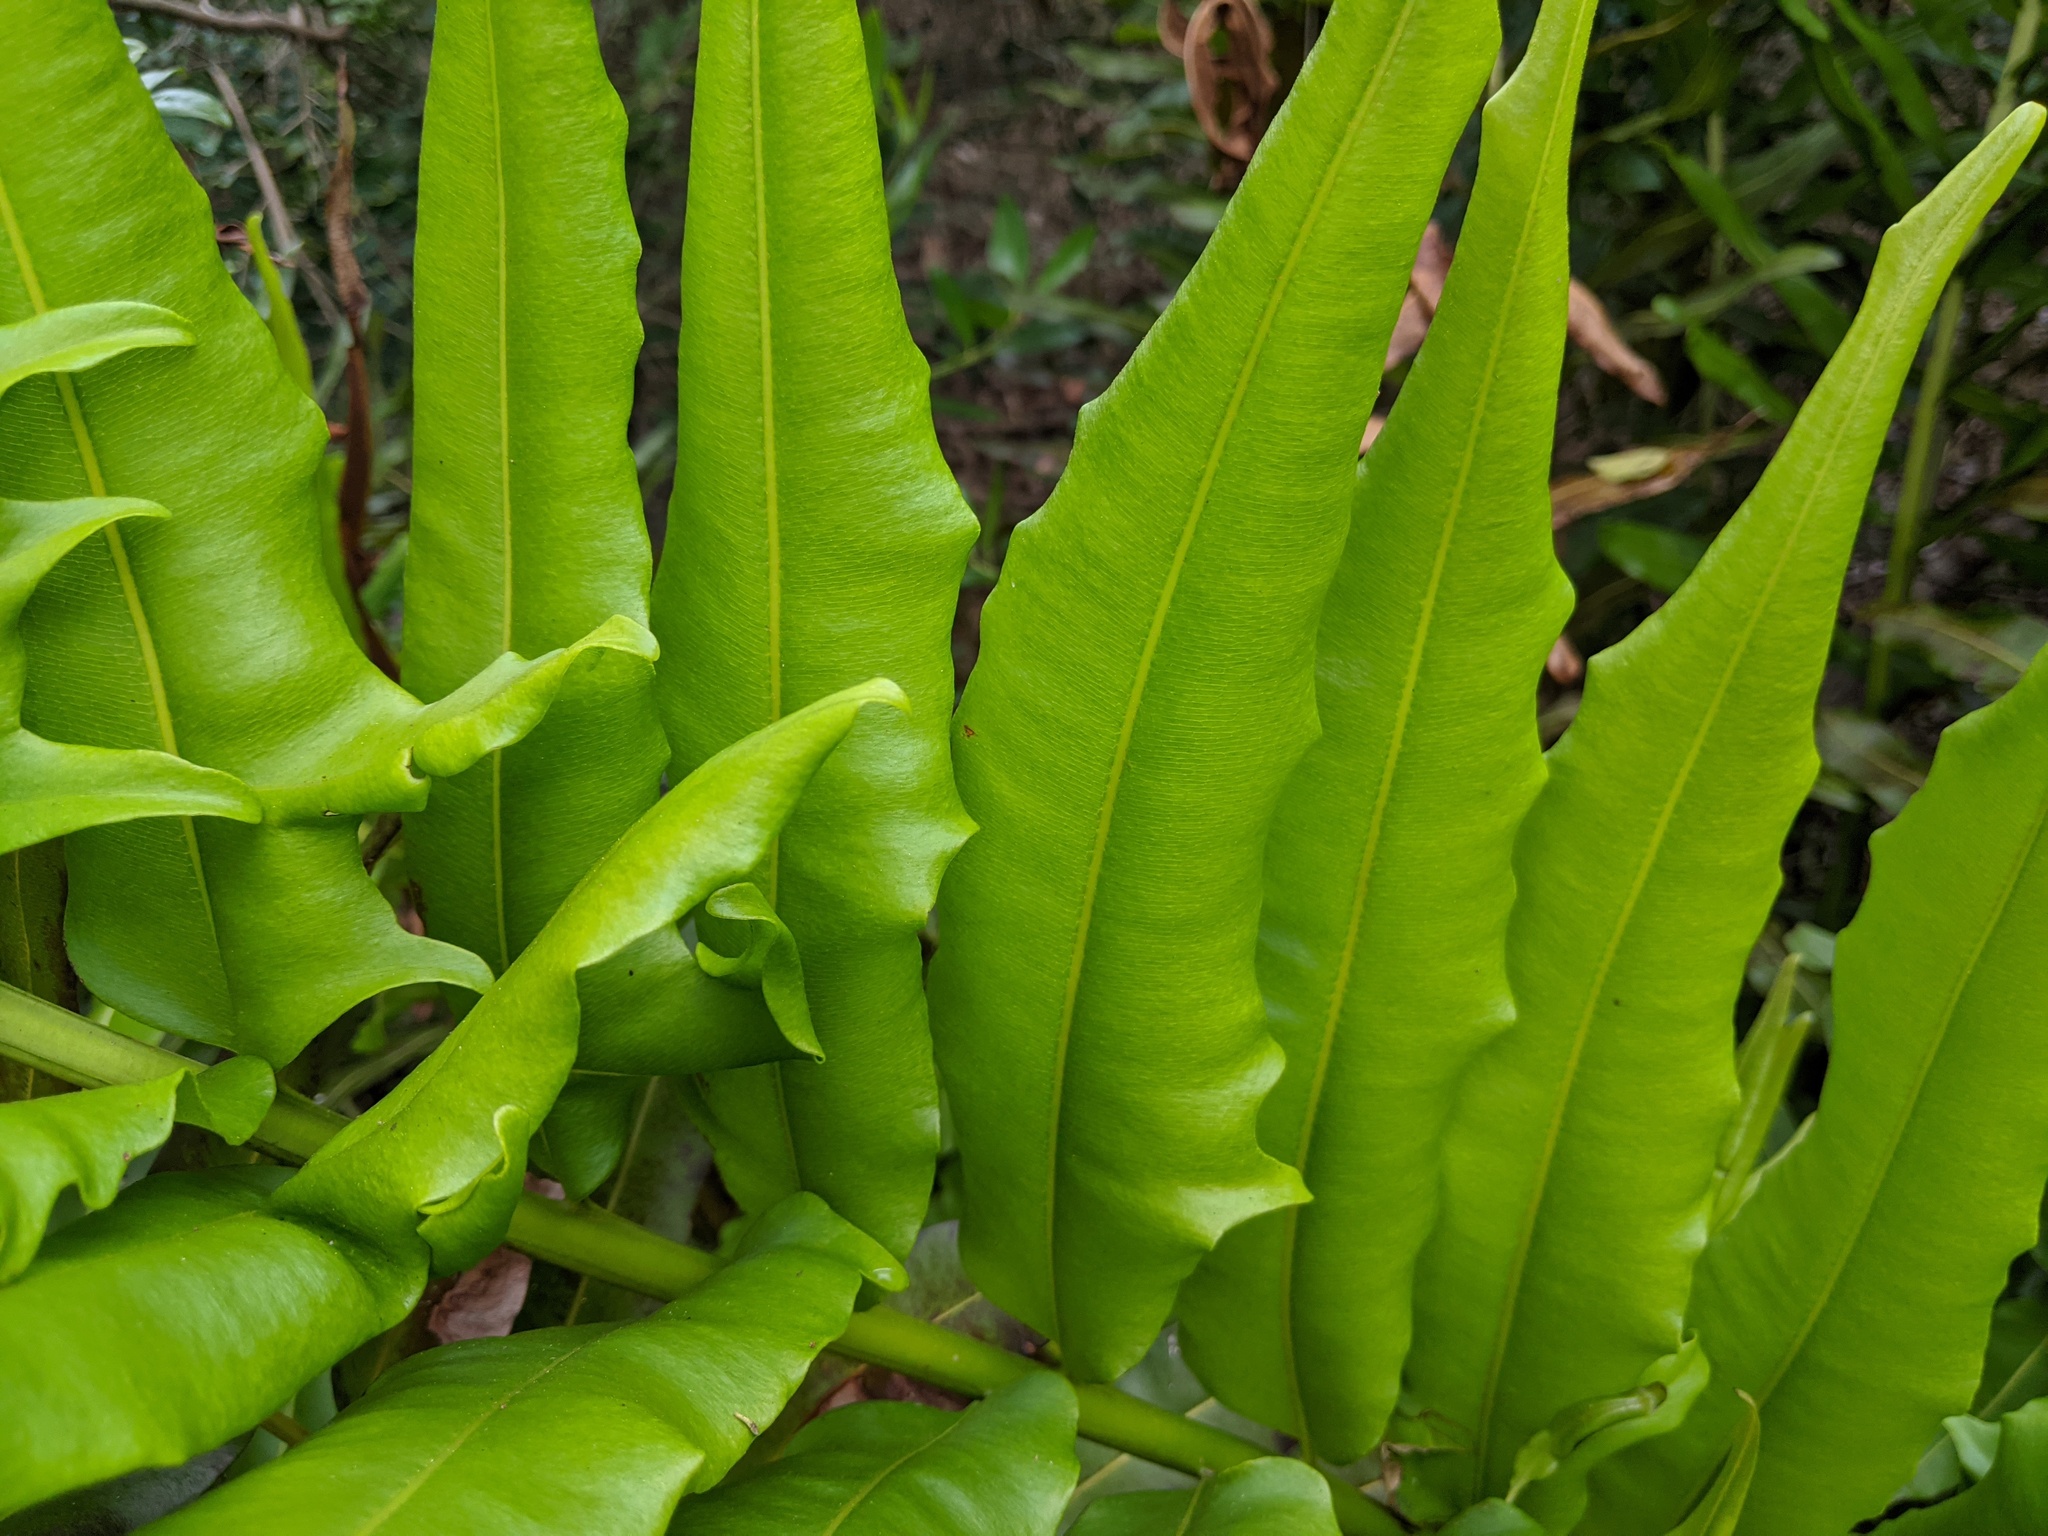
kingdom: Plantae
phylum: Tracheophyta
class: Polypodiopsida
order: Polypodiales
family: Pteridaceae
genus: Acrostichum
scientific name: Acrostichum danaeifolium
